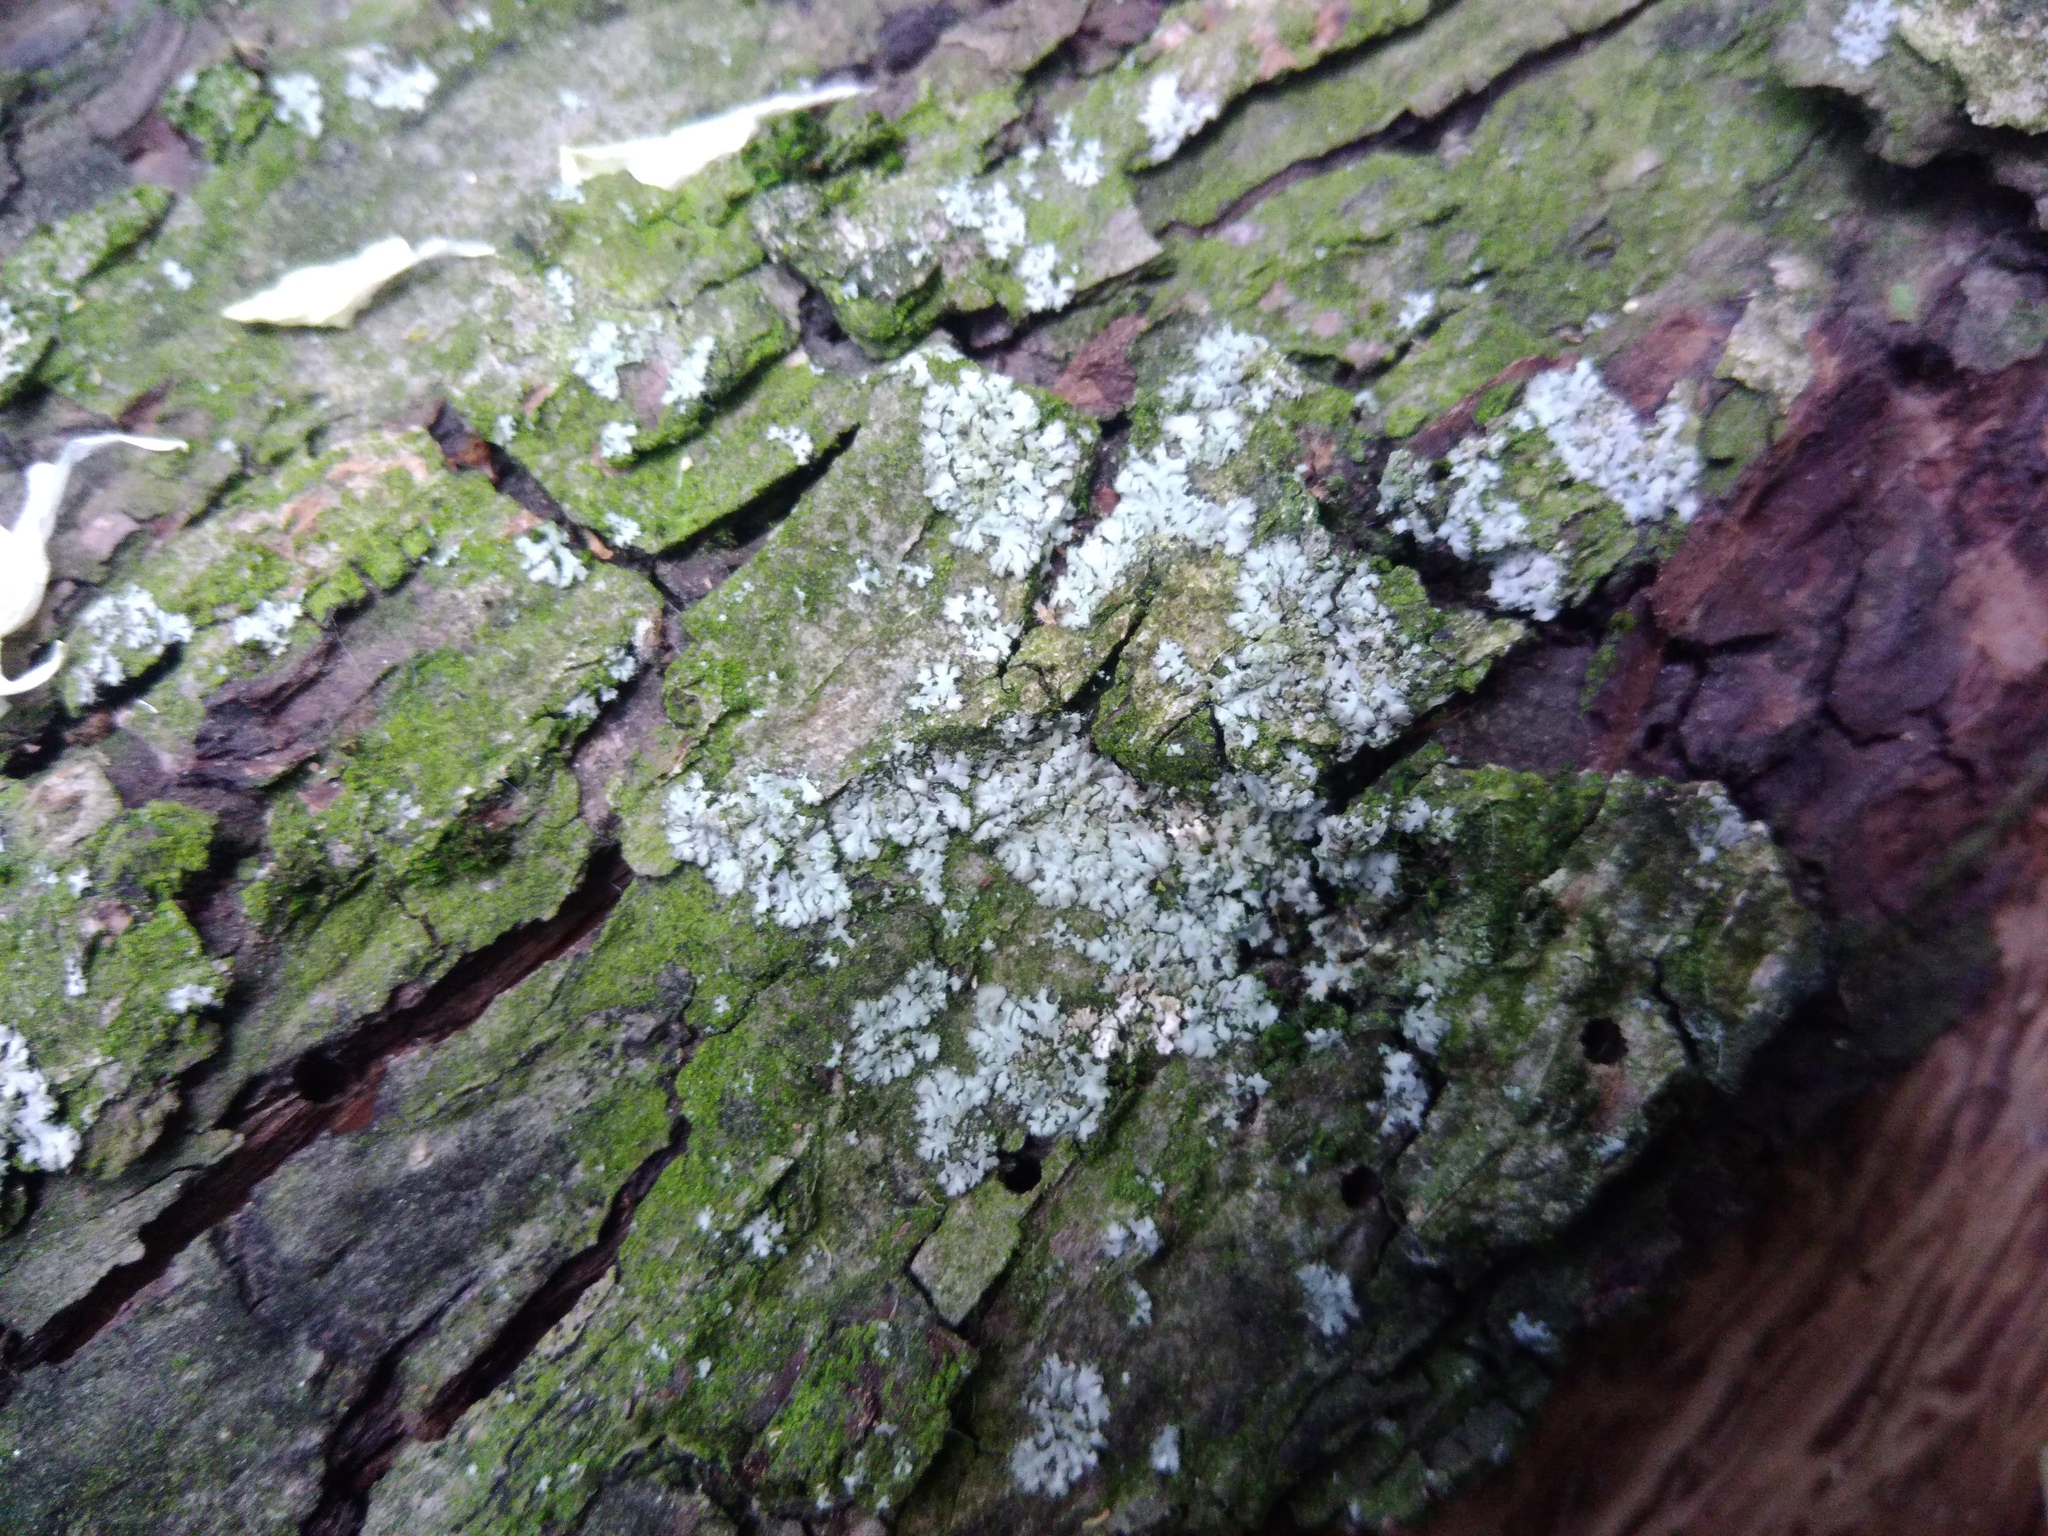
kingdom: Fungi
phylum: Ascomycota
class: Lecanoromycetes
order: Caliciales
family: Physciaceae
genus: Phaeophyscia
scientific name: Phaeophyscia orbicularis
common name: Mealy shadow lichen
